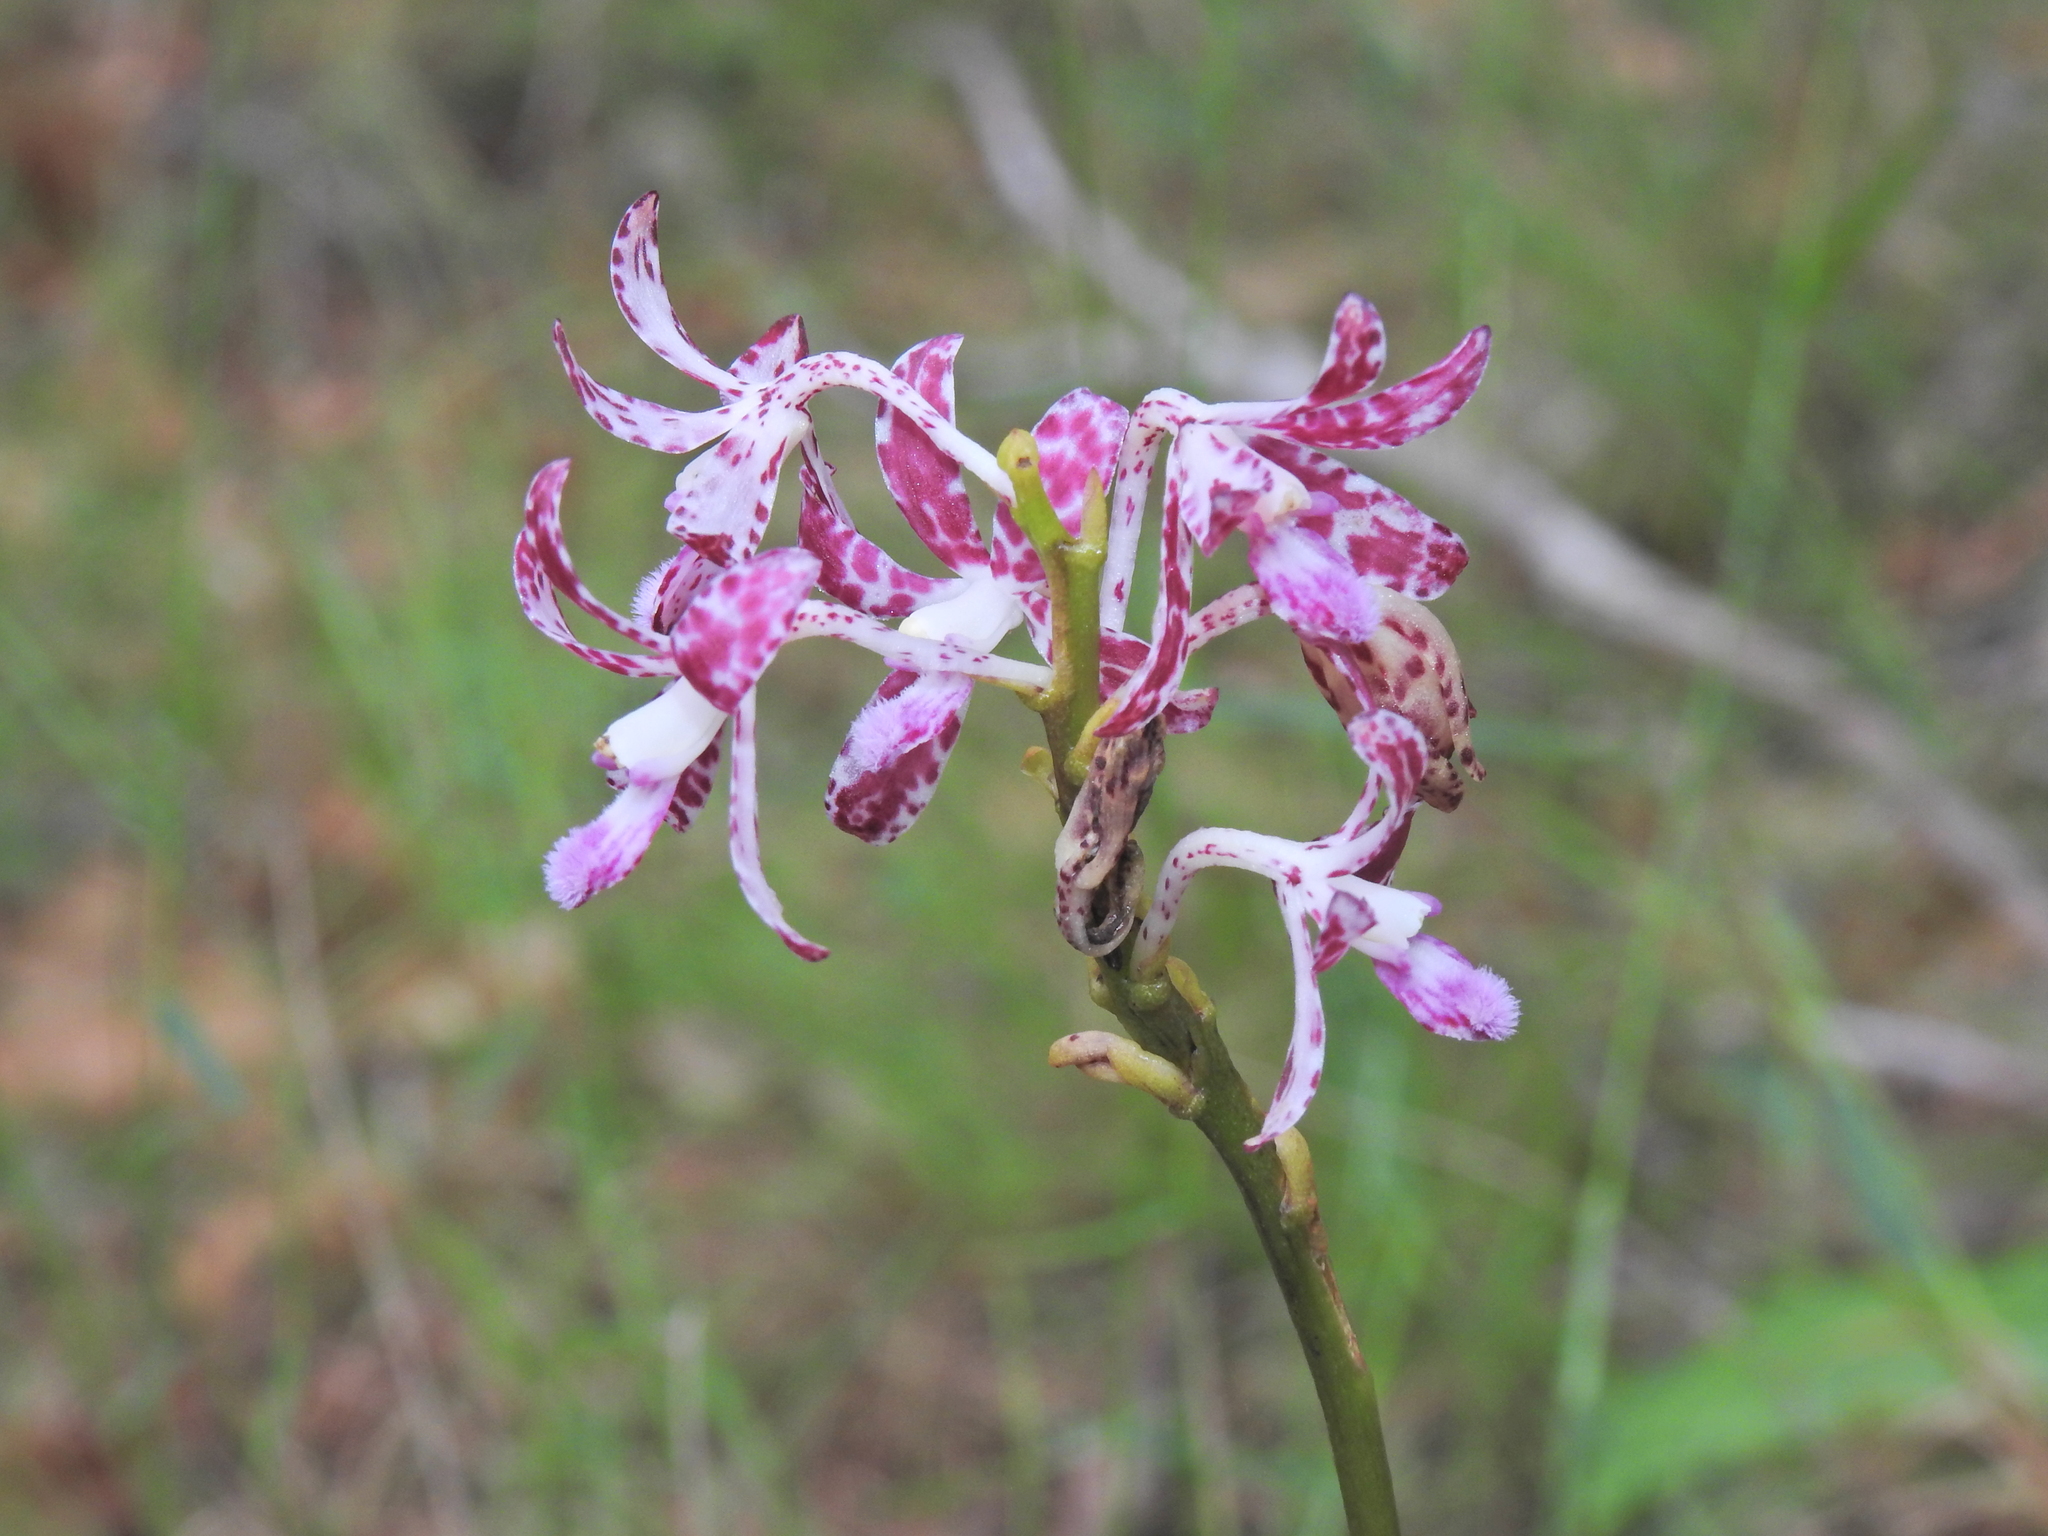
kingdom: Plantae
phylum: Tracheophyta
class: Liliopsida
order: Asparagales
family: Orchidaceae
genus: Dipodium
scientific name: Dipodium variegatum
